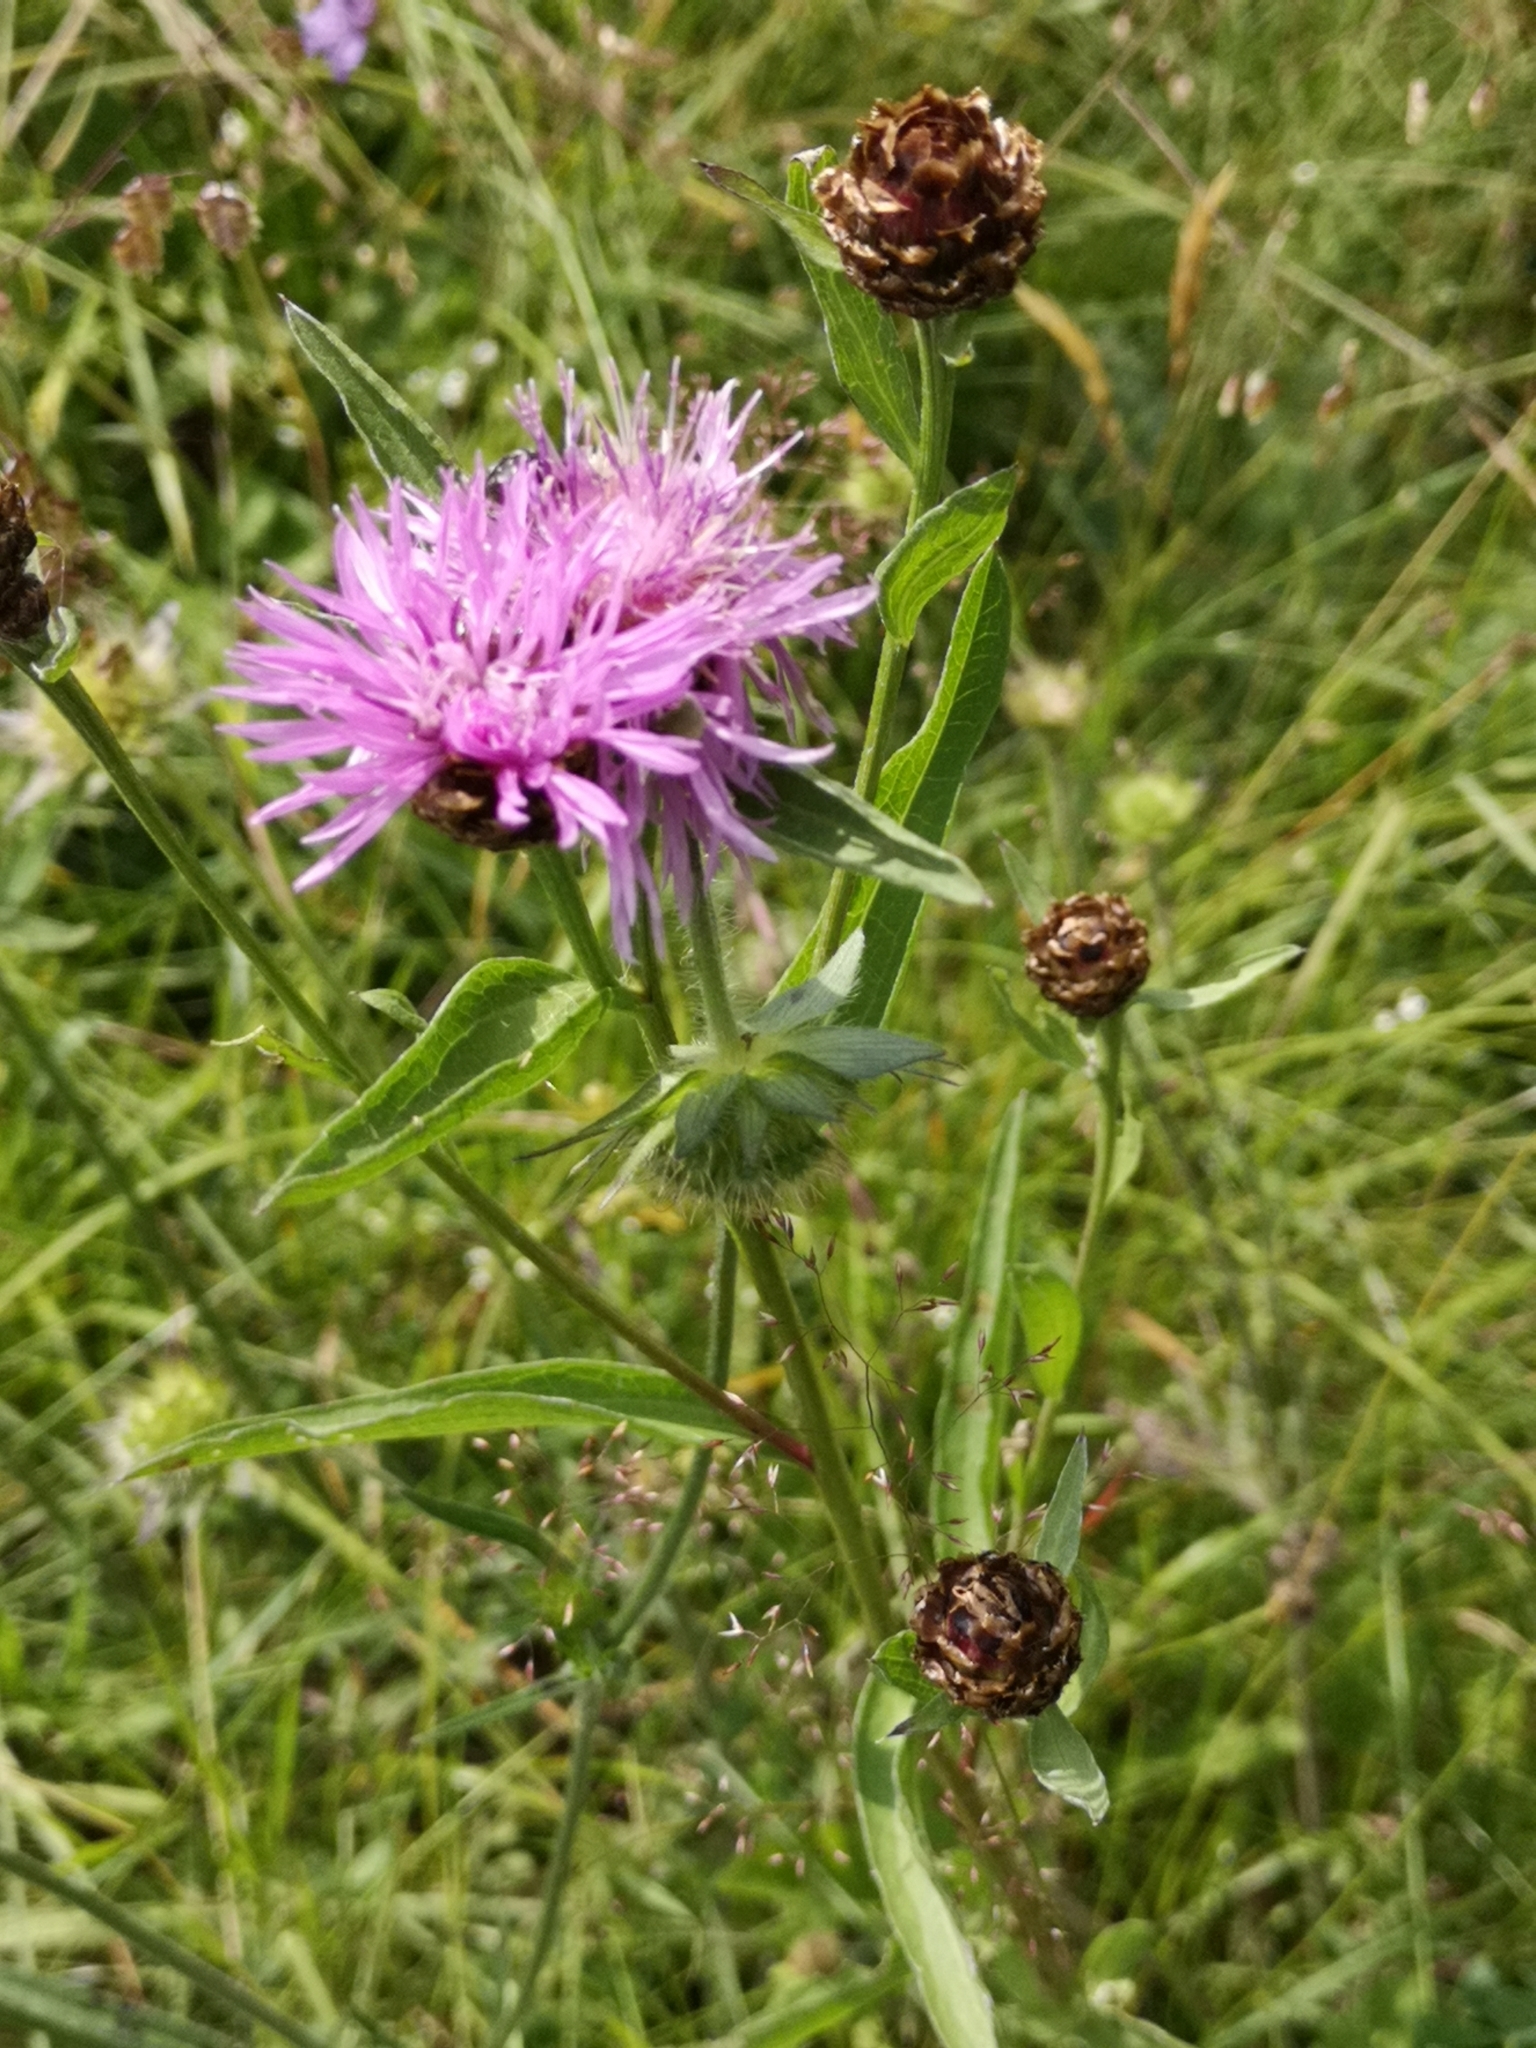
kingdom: Plantae
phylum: Tracheophyta
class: Magnoliopsida
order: Asterales
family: Asteraceae
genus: Centaurea
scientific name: Centaurea jacea
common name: Brown knapweed
